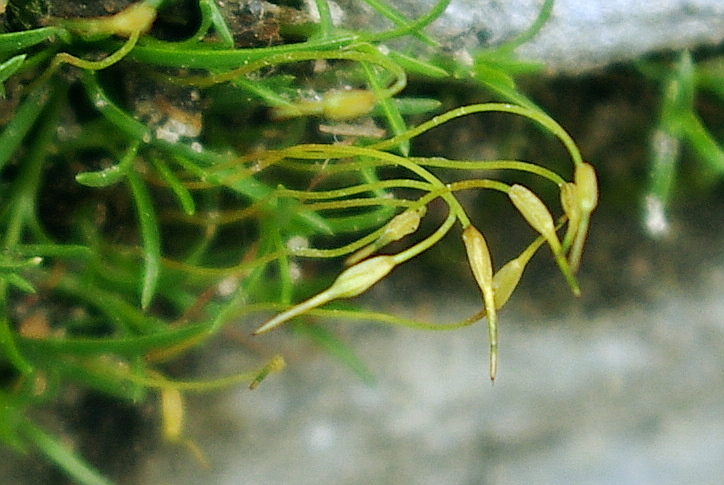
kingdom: Plantae
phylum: Bryophyta
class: Bryopsida
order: Funariales
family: Funariaceae
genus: Funaria
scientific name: Funaria hygrometrica
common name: Common cord moss
